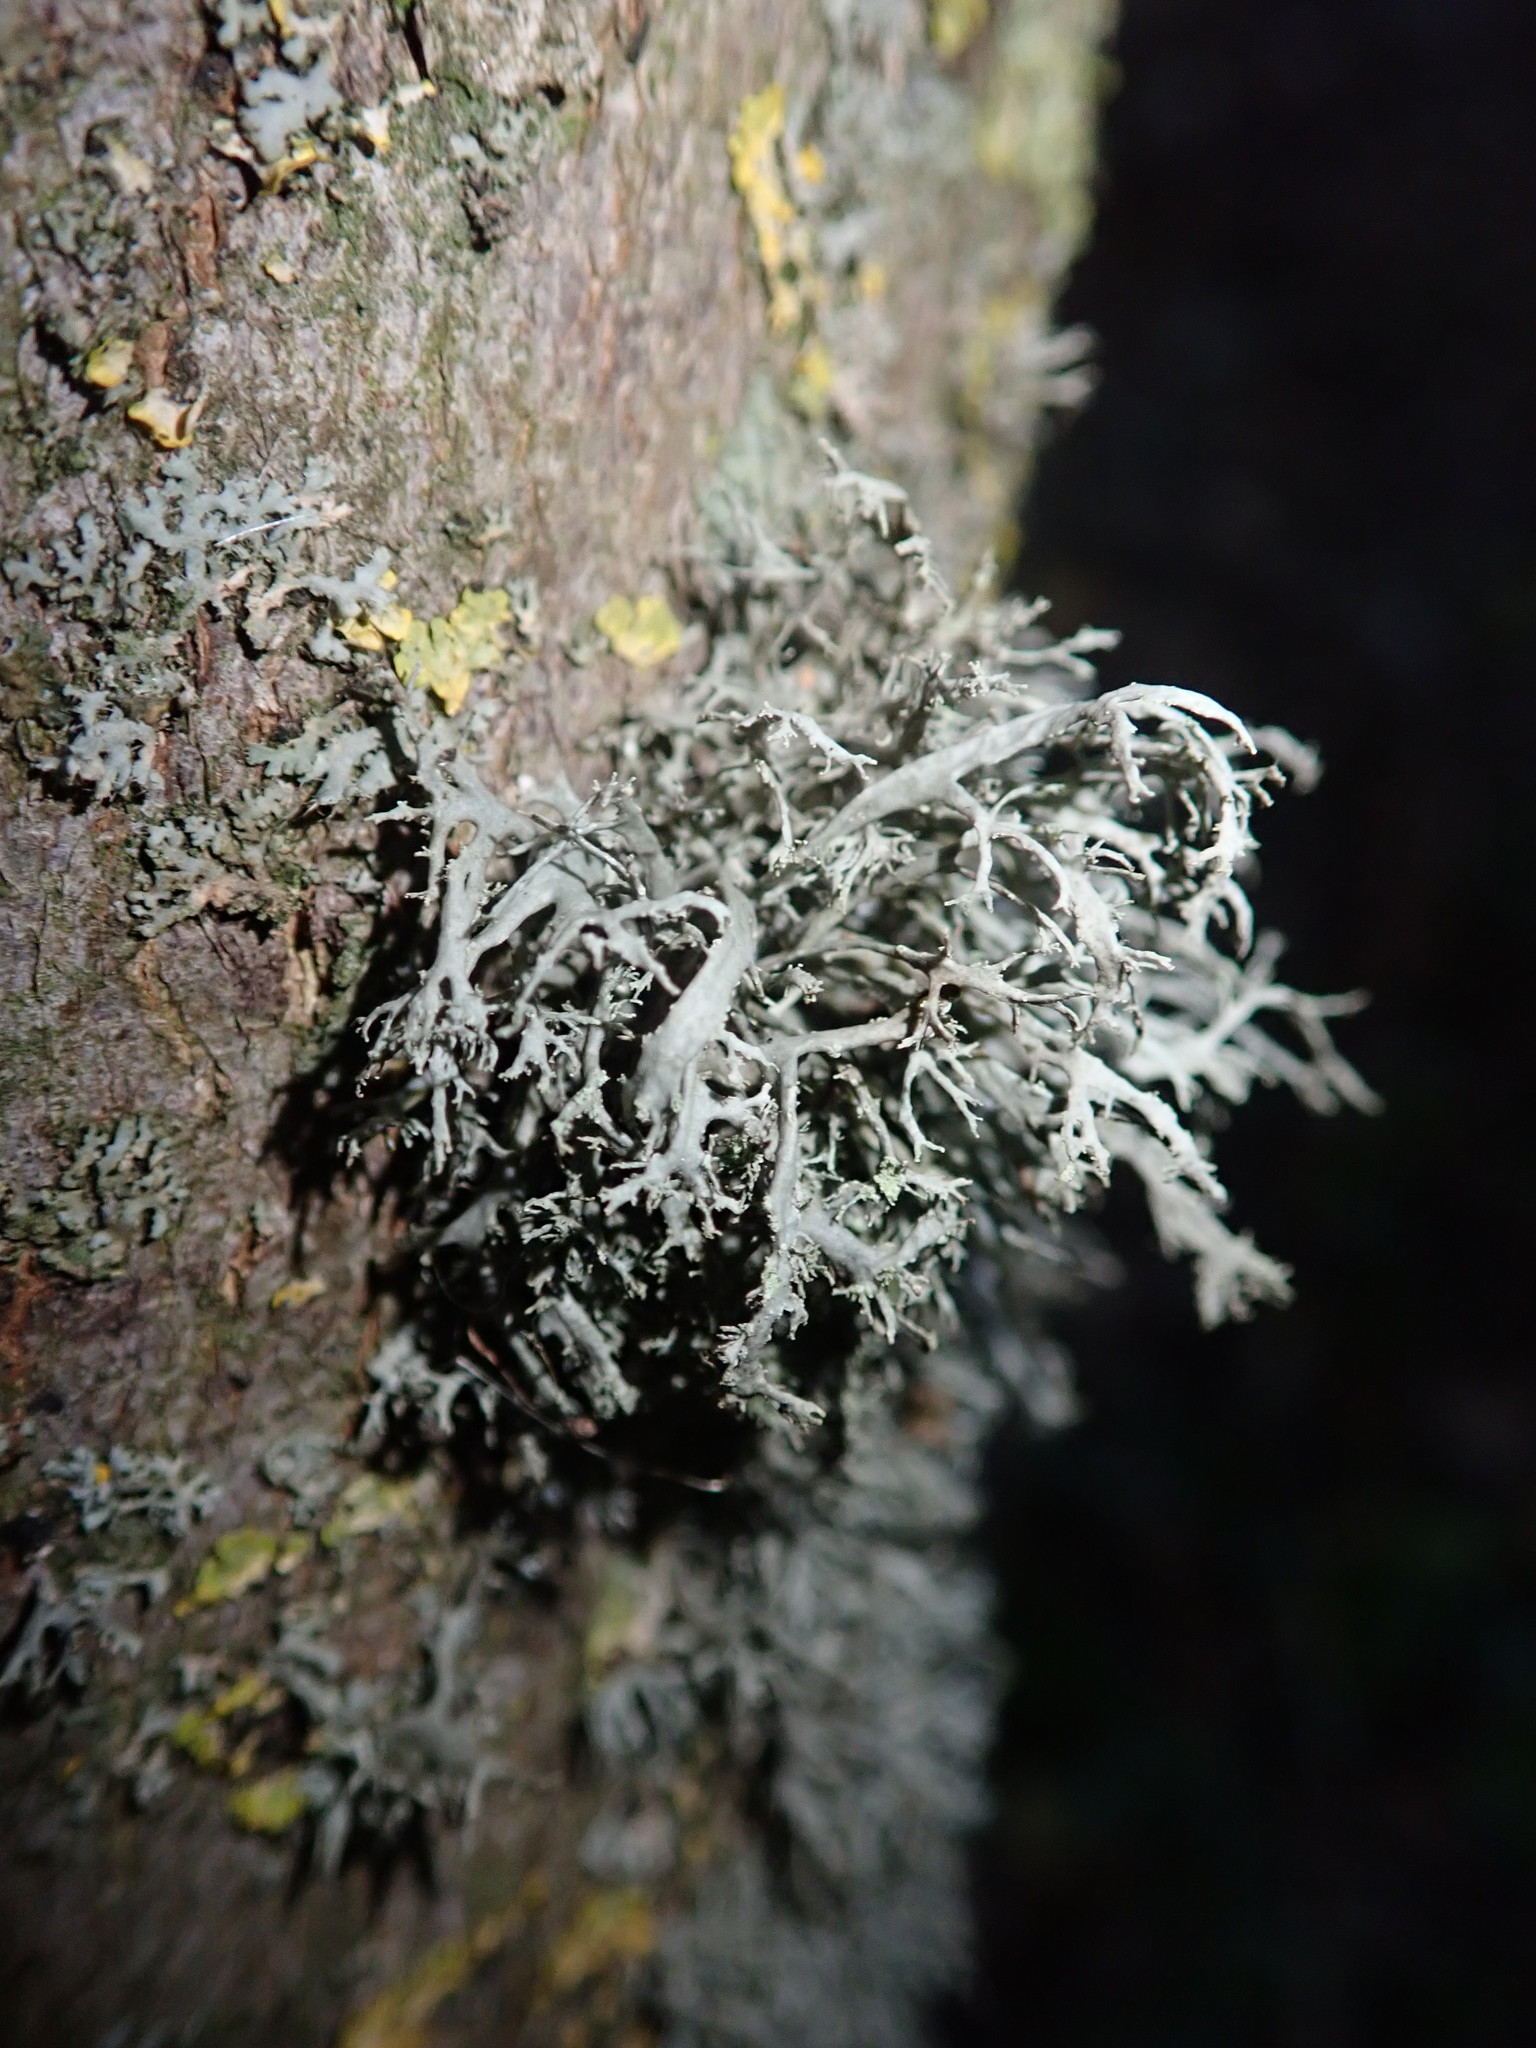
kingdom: Fungi
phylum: Ascomycota
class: Lecanoromycetes
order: Lecanorales
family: Ramalinaceae
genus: Ramalina
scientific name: Ramalina farinacea
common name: Farinose cartilage lichen
